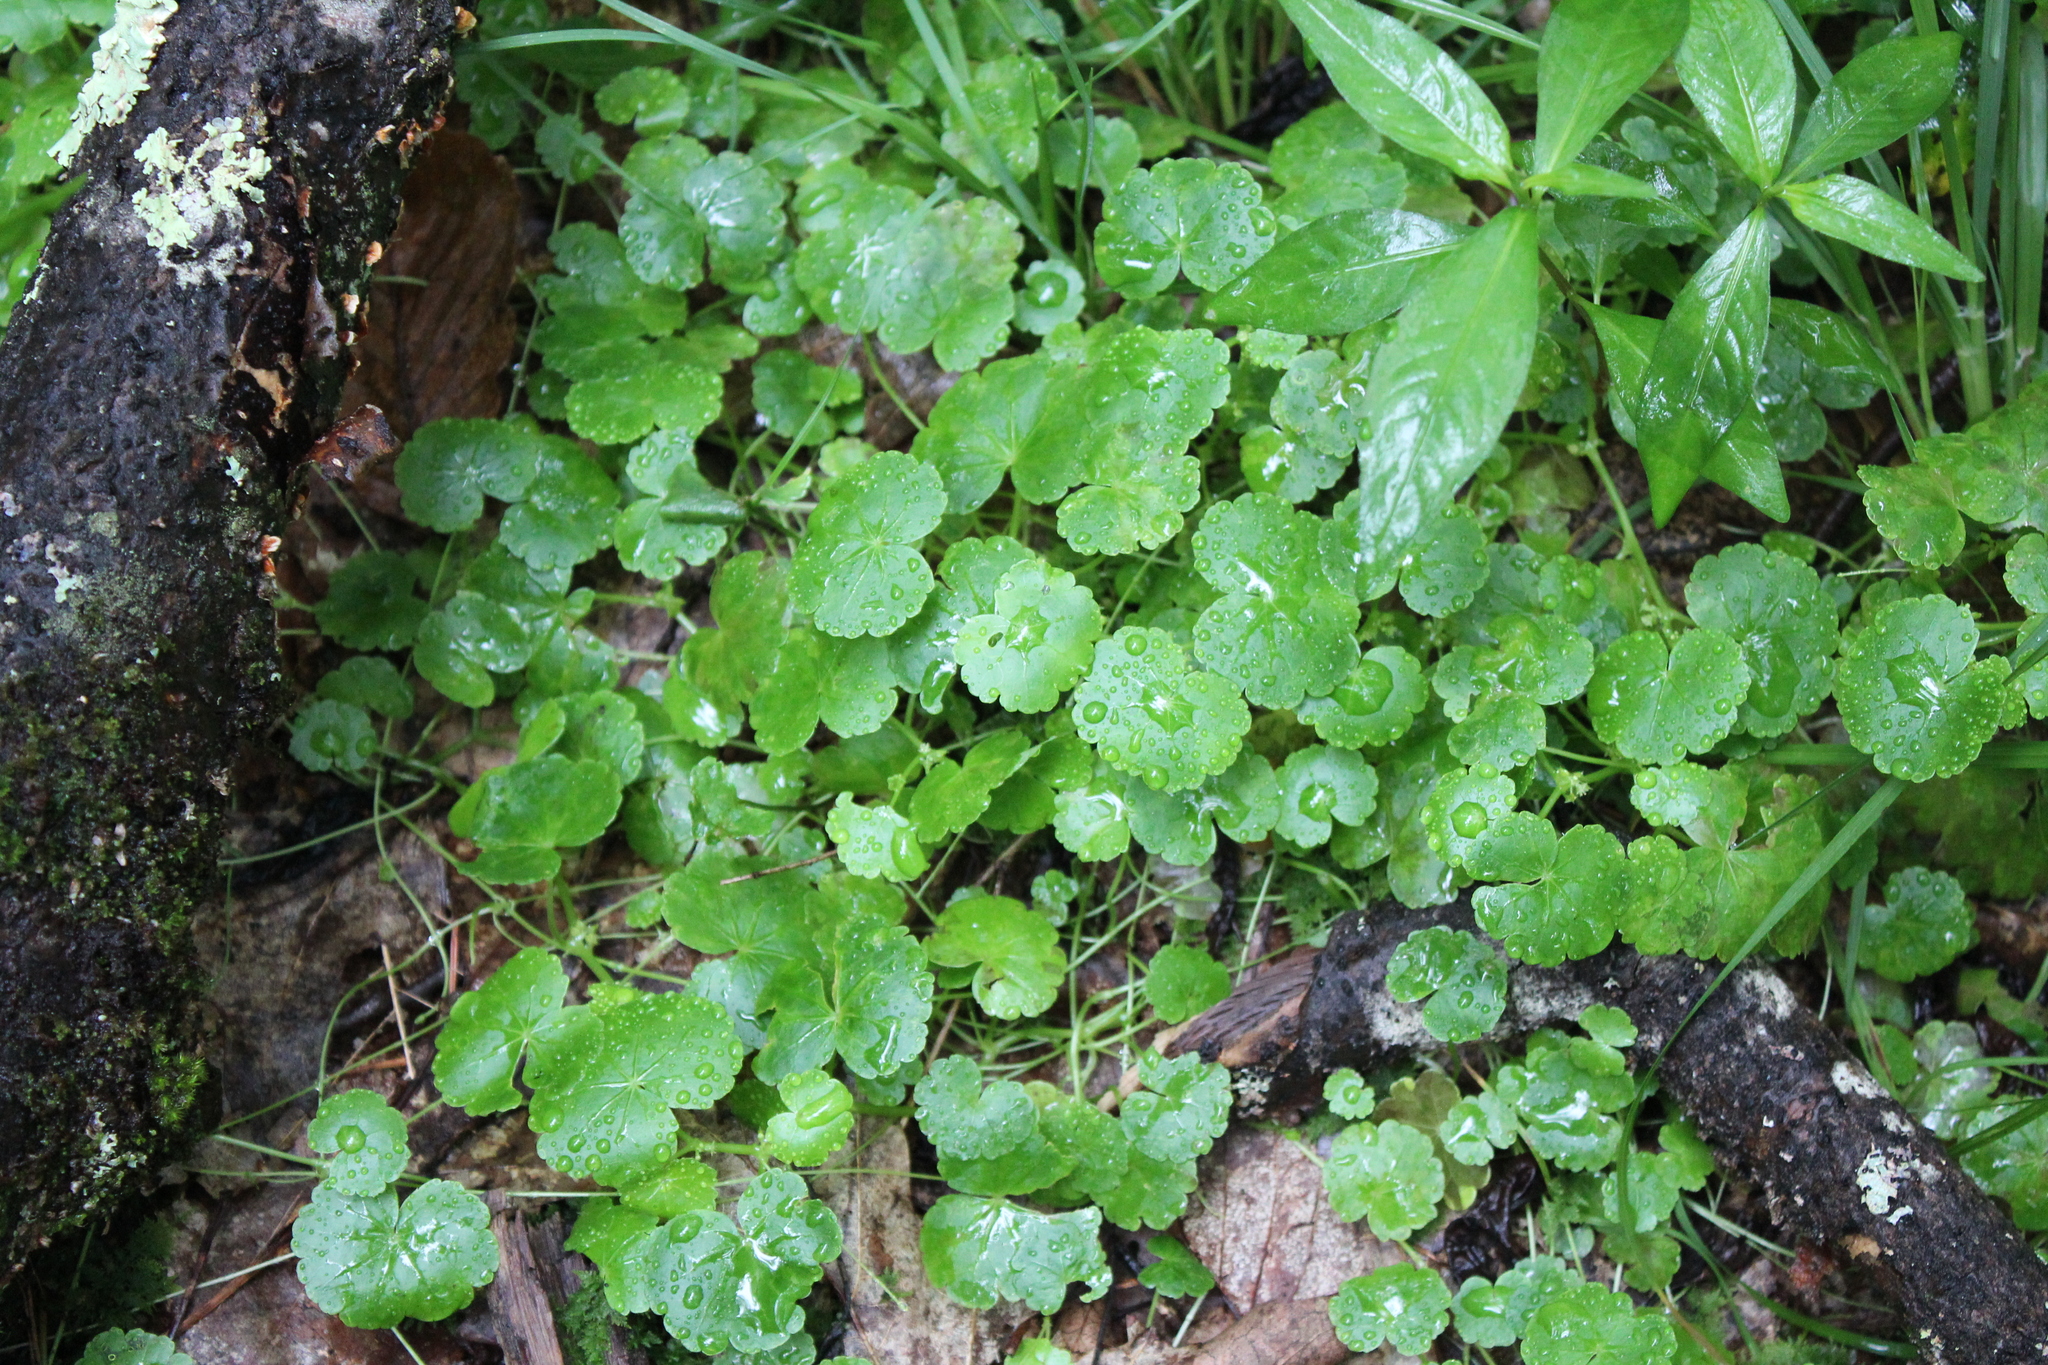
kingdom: Plantae
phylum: Tracheophyta
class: Magnoliopsida
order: Apiales
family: Araliaceae
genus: Hydrocotyle
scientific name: Hydrocotyle americana
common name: American water-pennywort
